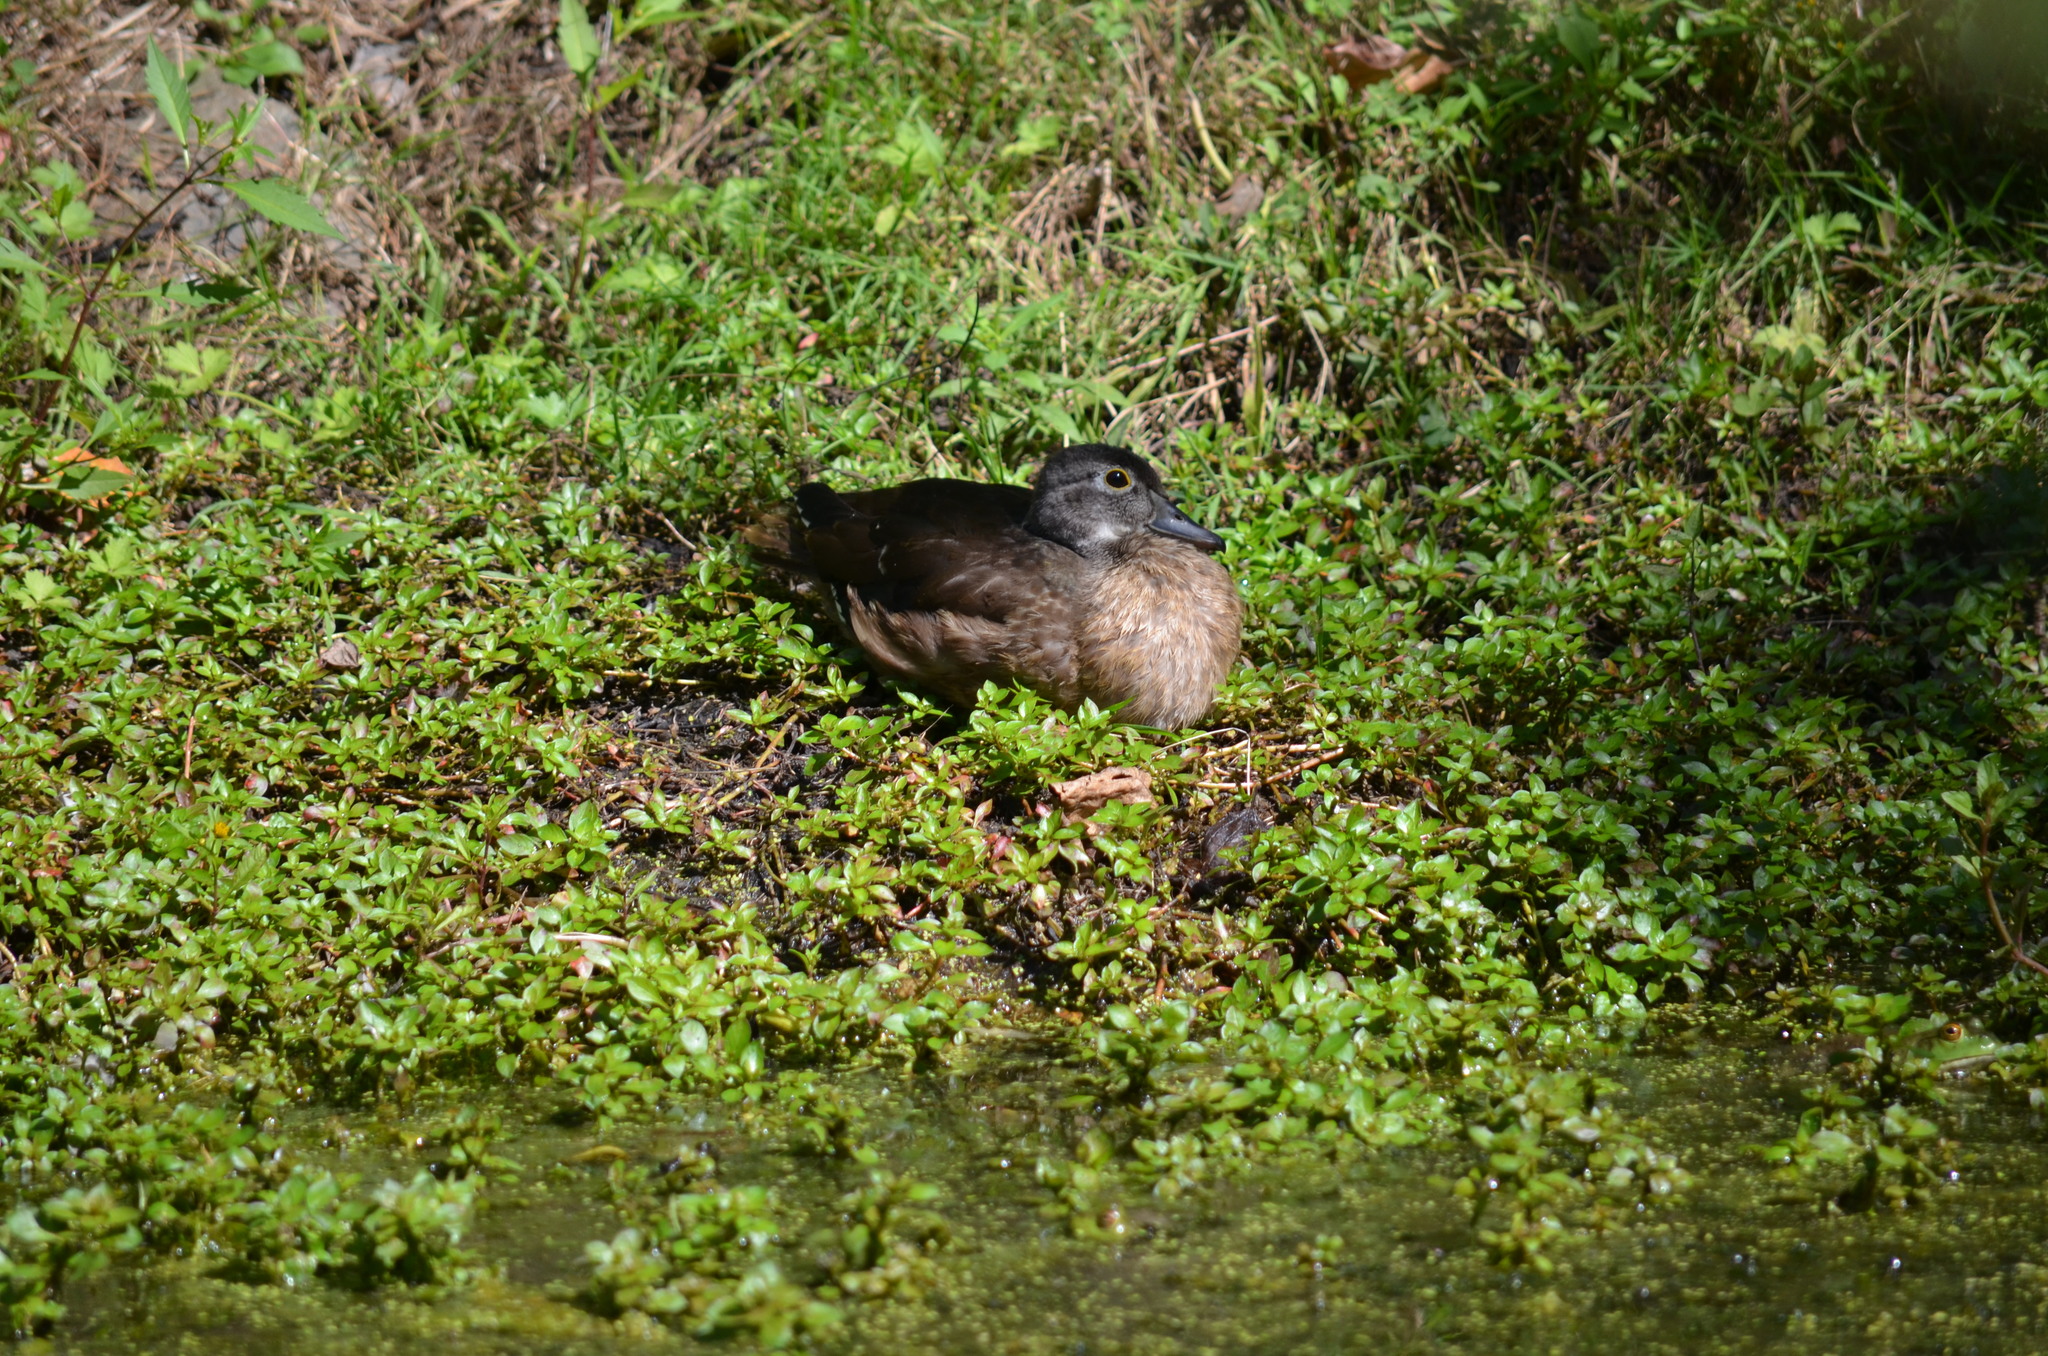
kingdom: Animalia
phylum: Chordata
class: Aves
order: Anseriformes
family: Anatidae
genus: Aix
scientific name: Aix sponsa
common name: Wood duck
